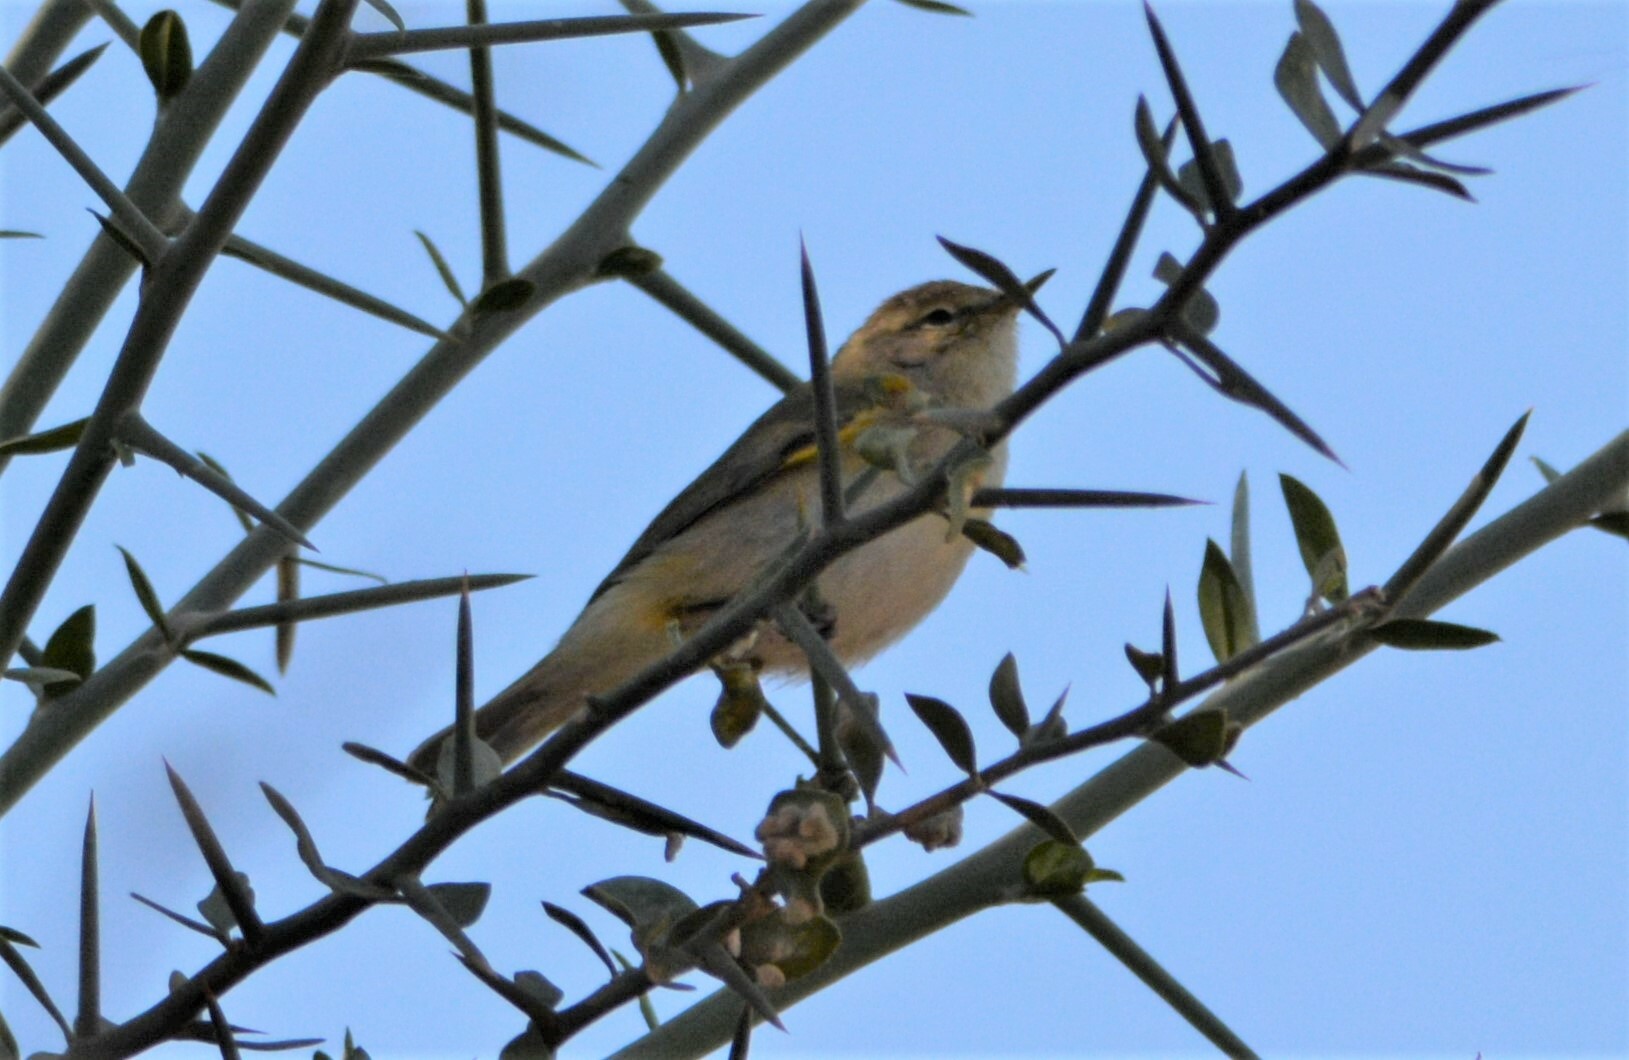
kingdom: Animalia
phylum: Chordata
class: Aves
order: Passeriformes
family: Phylloscopidae
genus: Phylloscopus
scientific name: Phylloscopus bonelli
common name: Western bonelli's warbler
